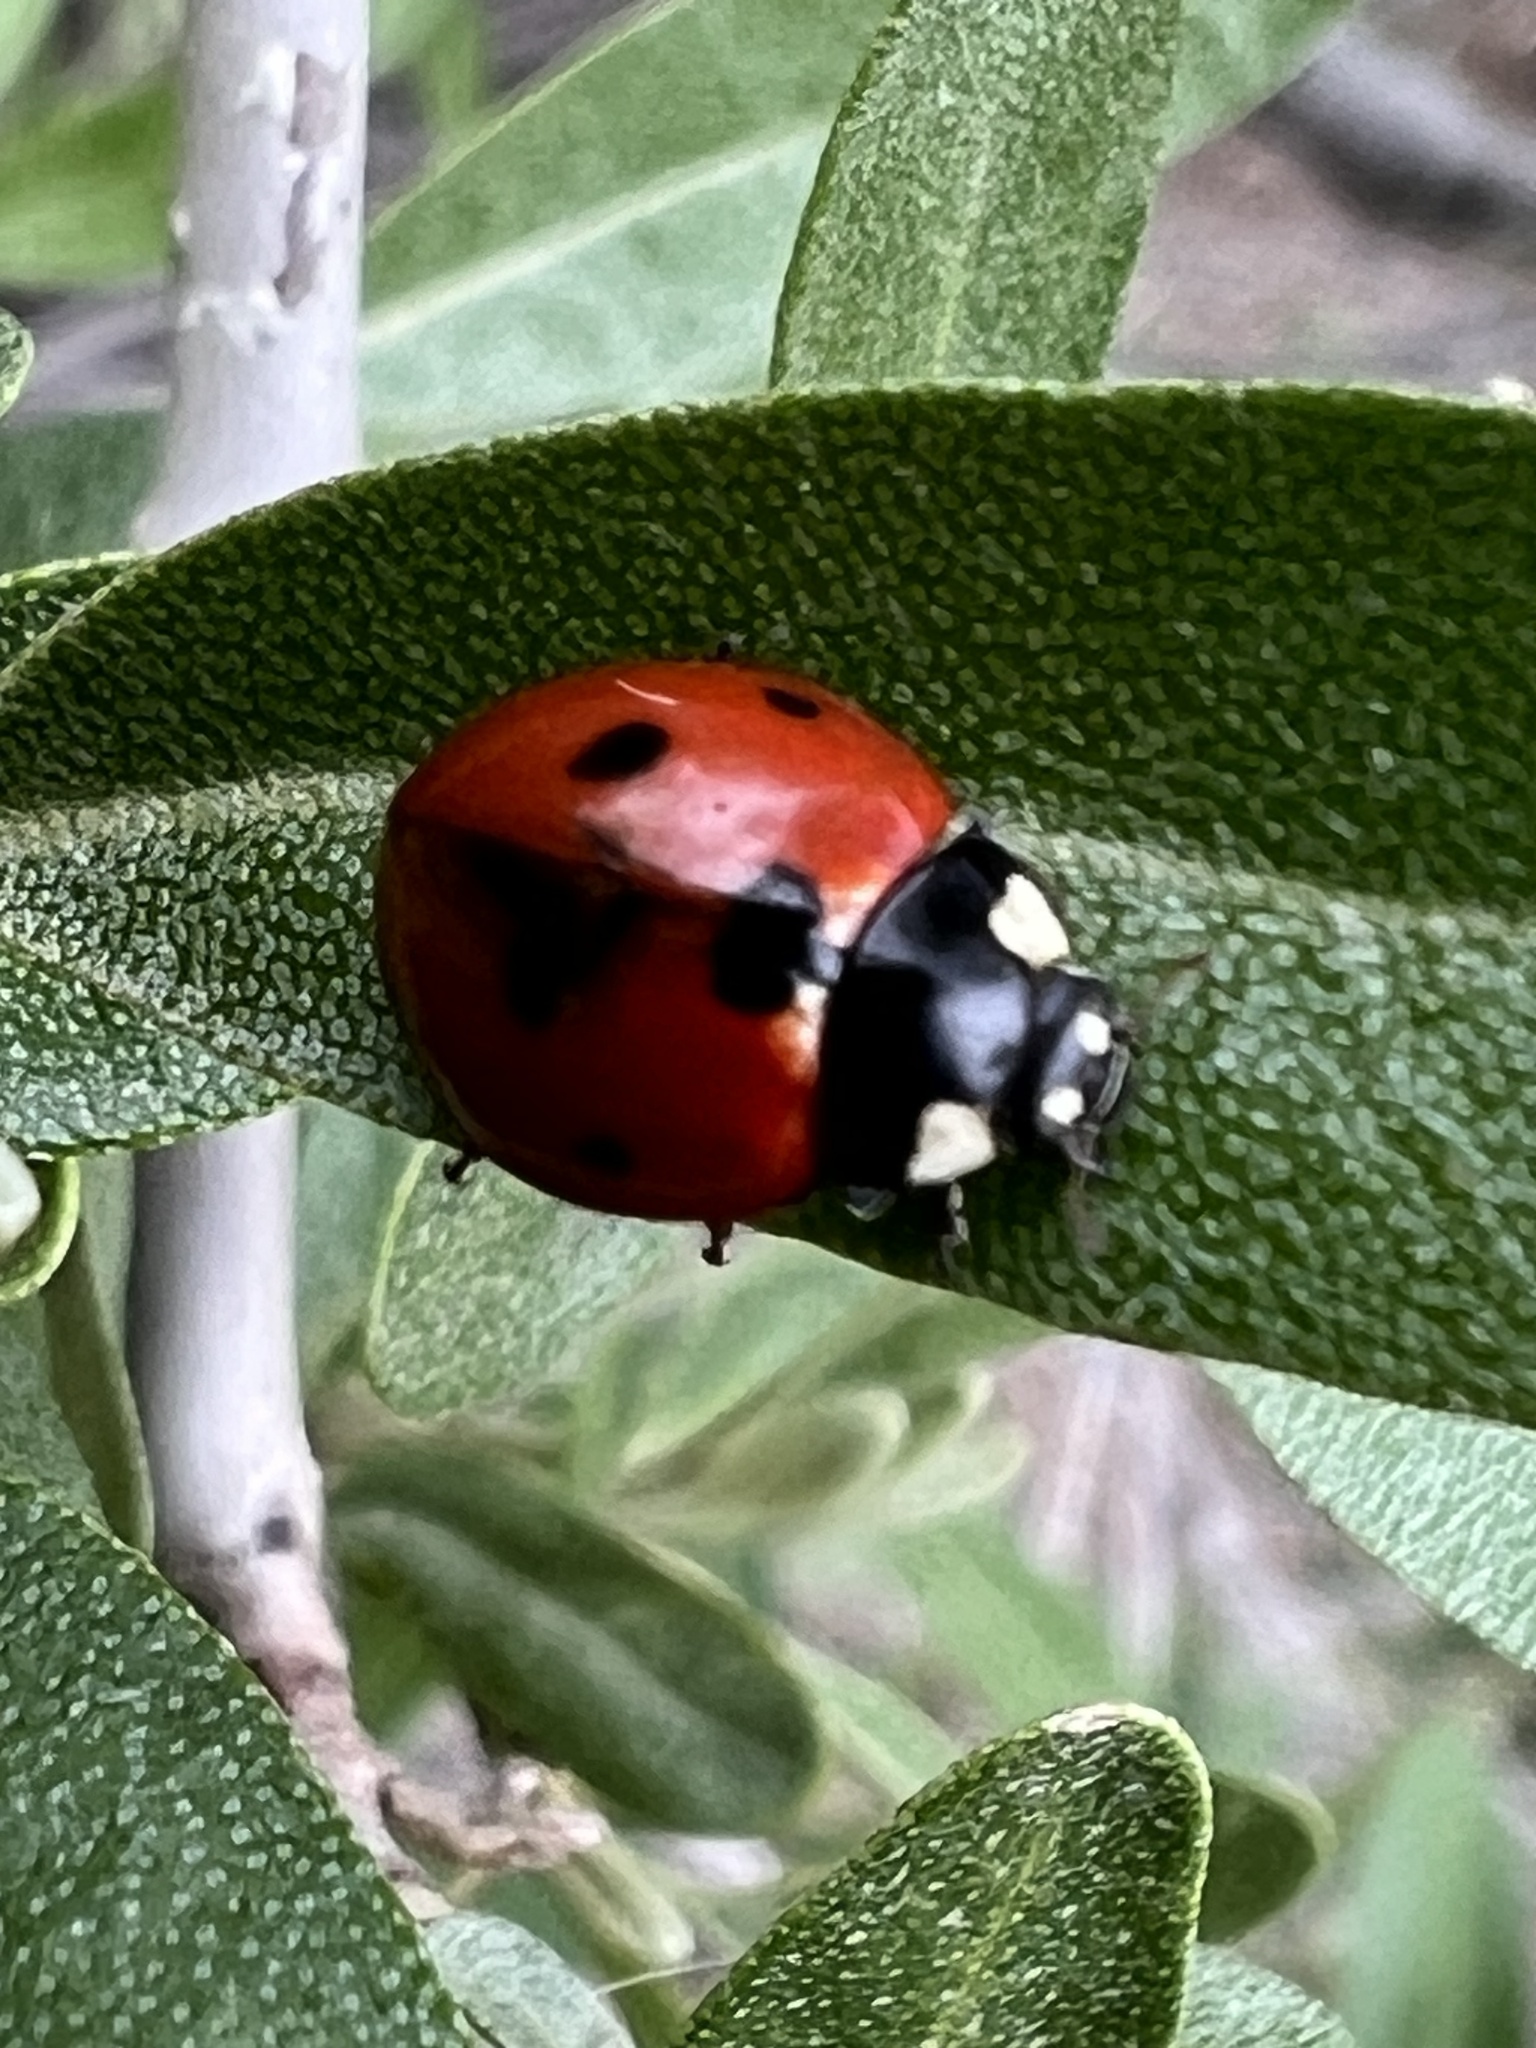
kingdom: Animalia
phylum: Arthropoda
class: Insecta
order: Coleoptera
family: Coccinellidae
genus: Coccinella
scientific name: Coccinella septempunctata
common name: Sevenspotted lady beetle
